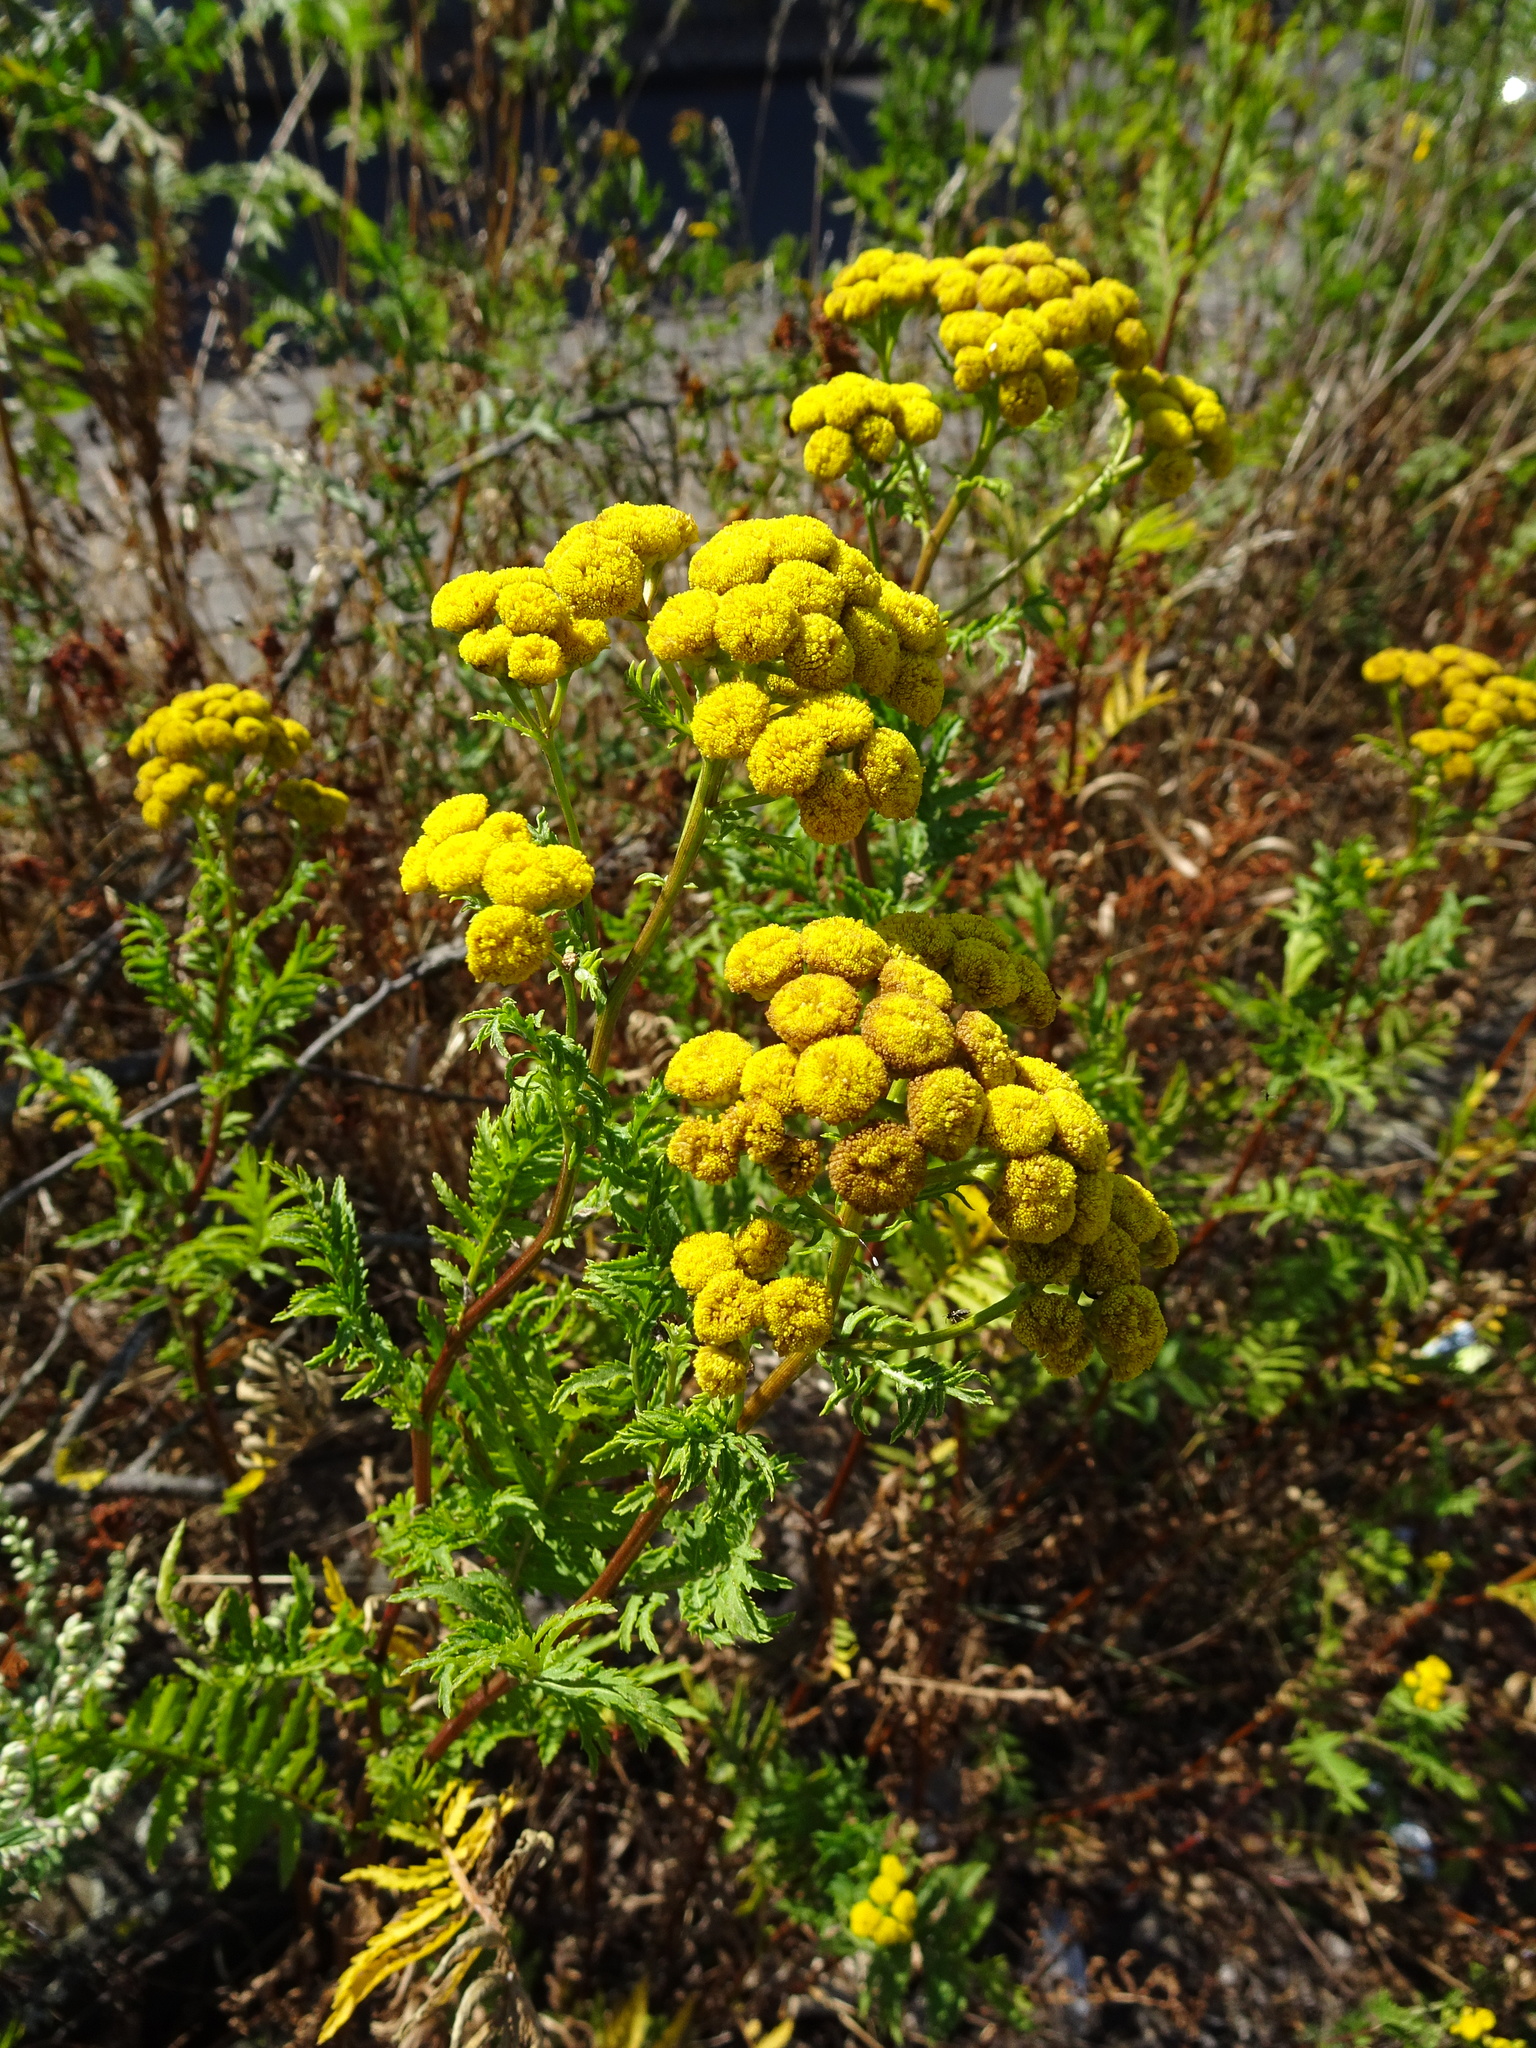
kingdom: Plantae
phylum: Tracheophyta
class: Magnoliopsida
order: Asterales
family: Asteraceae
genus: Tanacetum
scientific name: Tanacetum vulgare
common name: Common tansy
